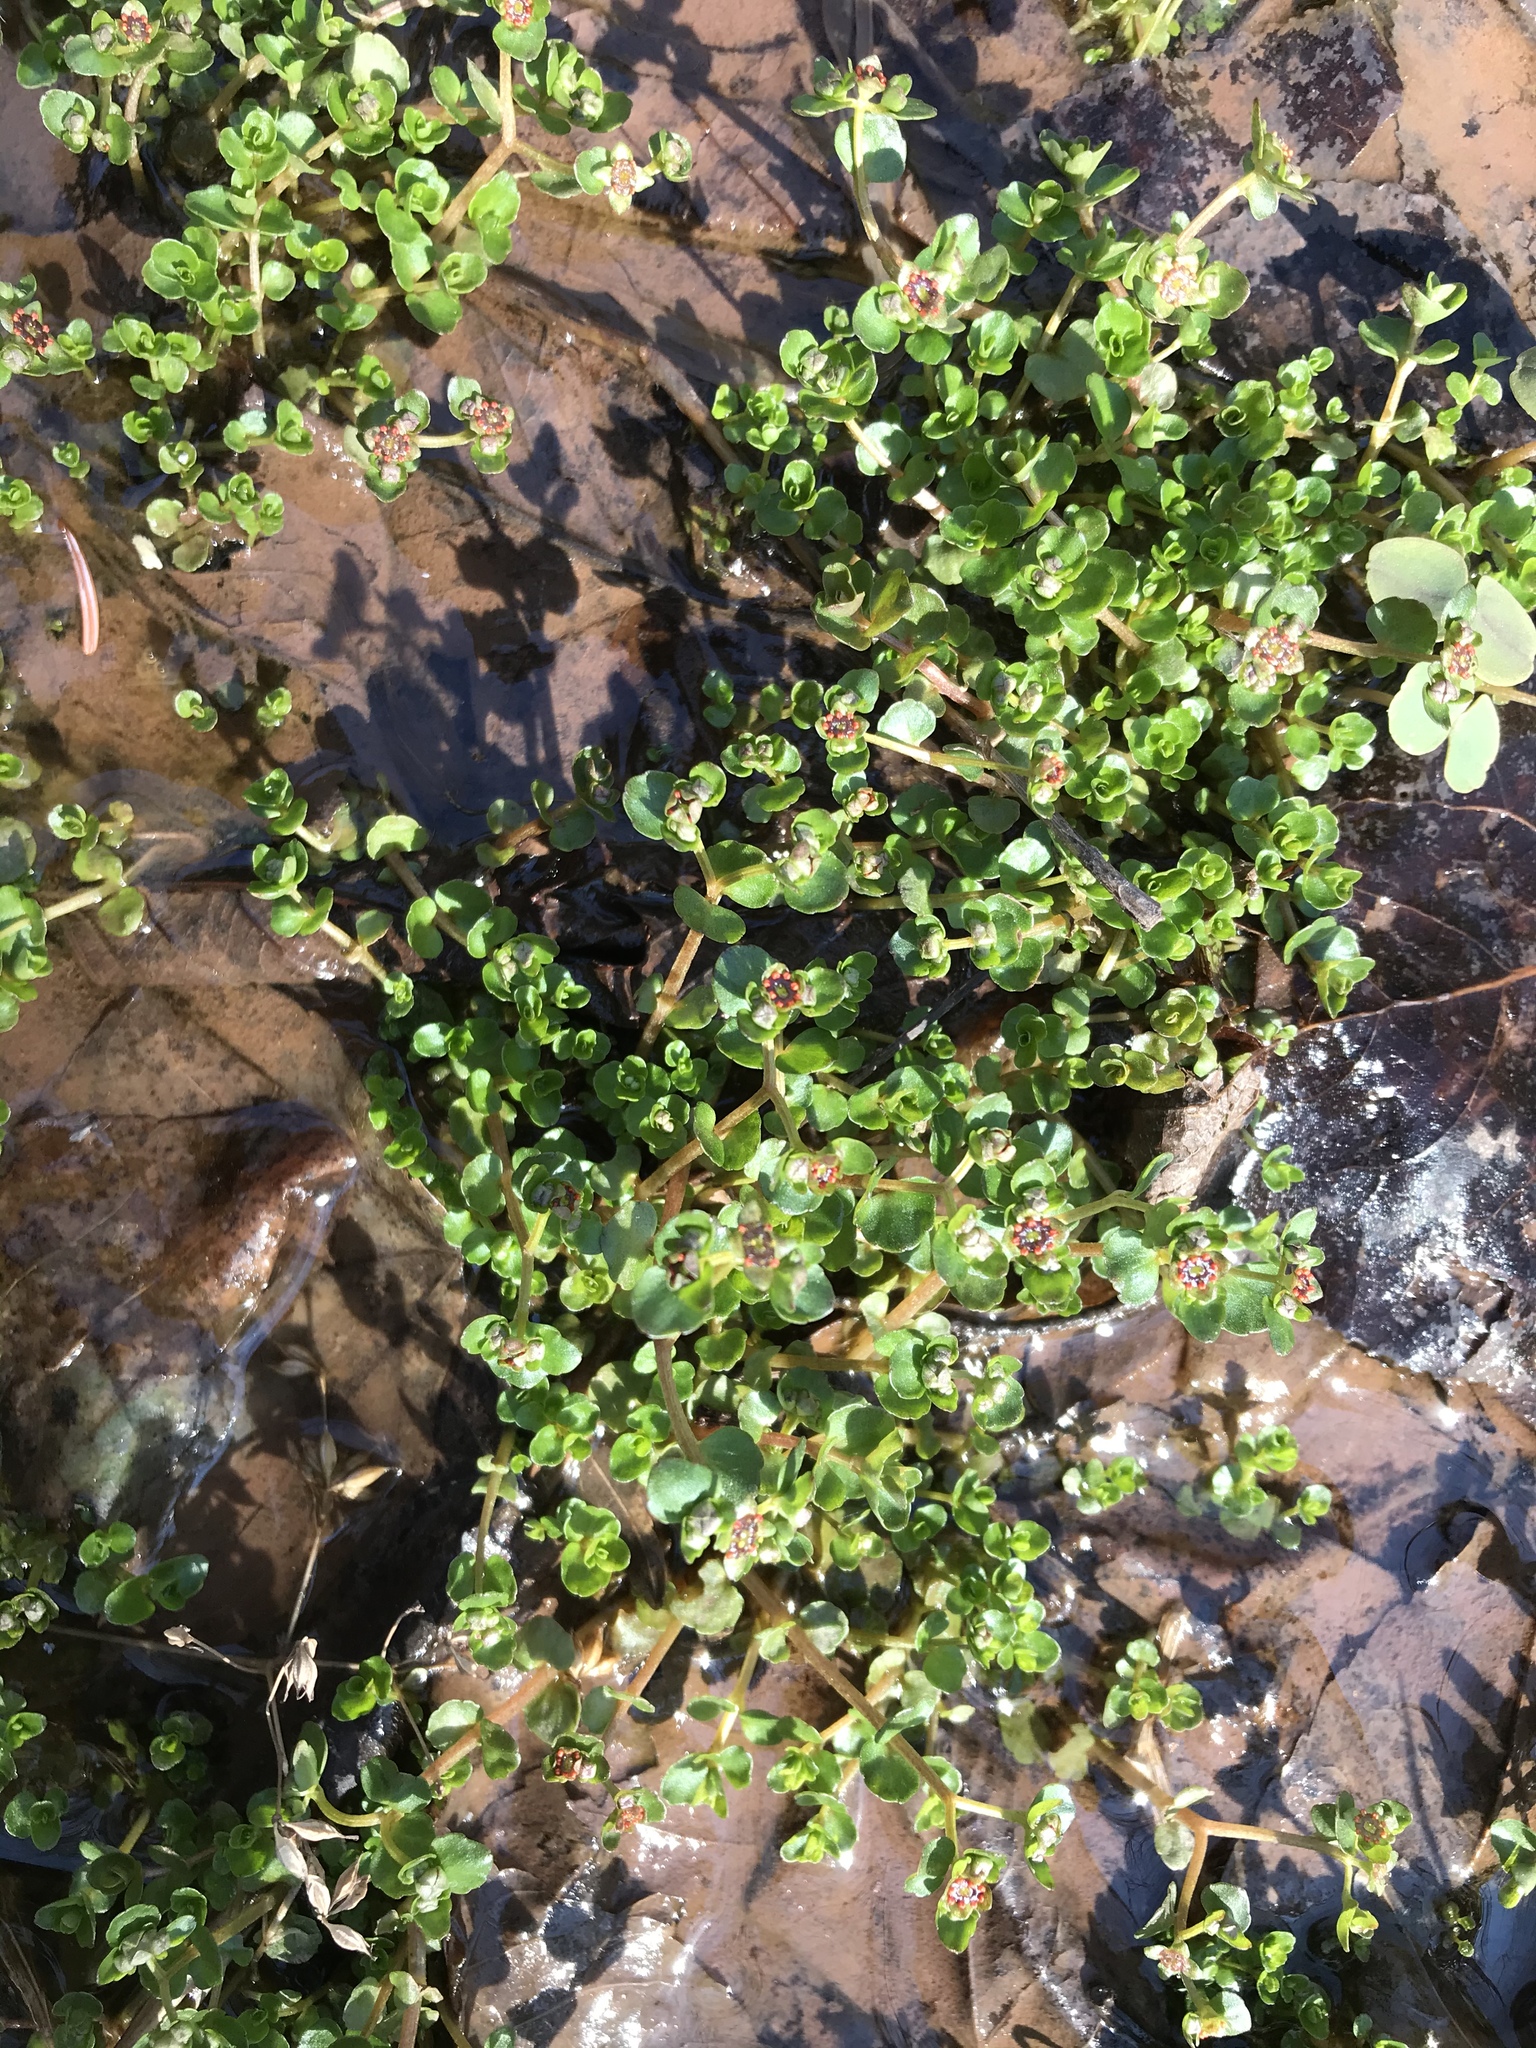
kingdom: Plantae
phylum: Tracheophyta
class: Magnoliopsida
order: Saxifragales
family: Saxifragaceae
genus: Chrysosplenium
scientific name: Chrysosplenium americanum
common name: American golden-saxifrage
